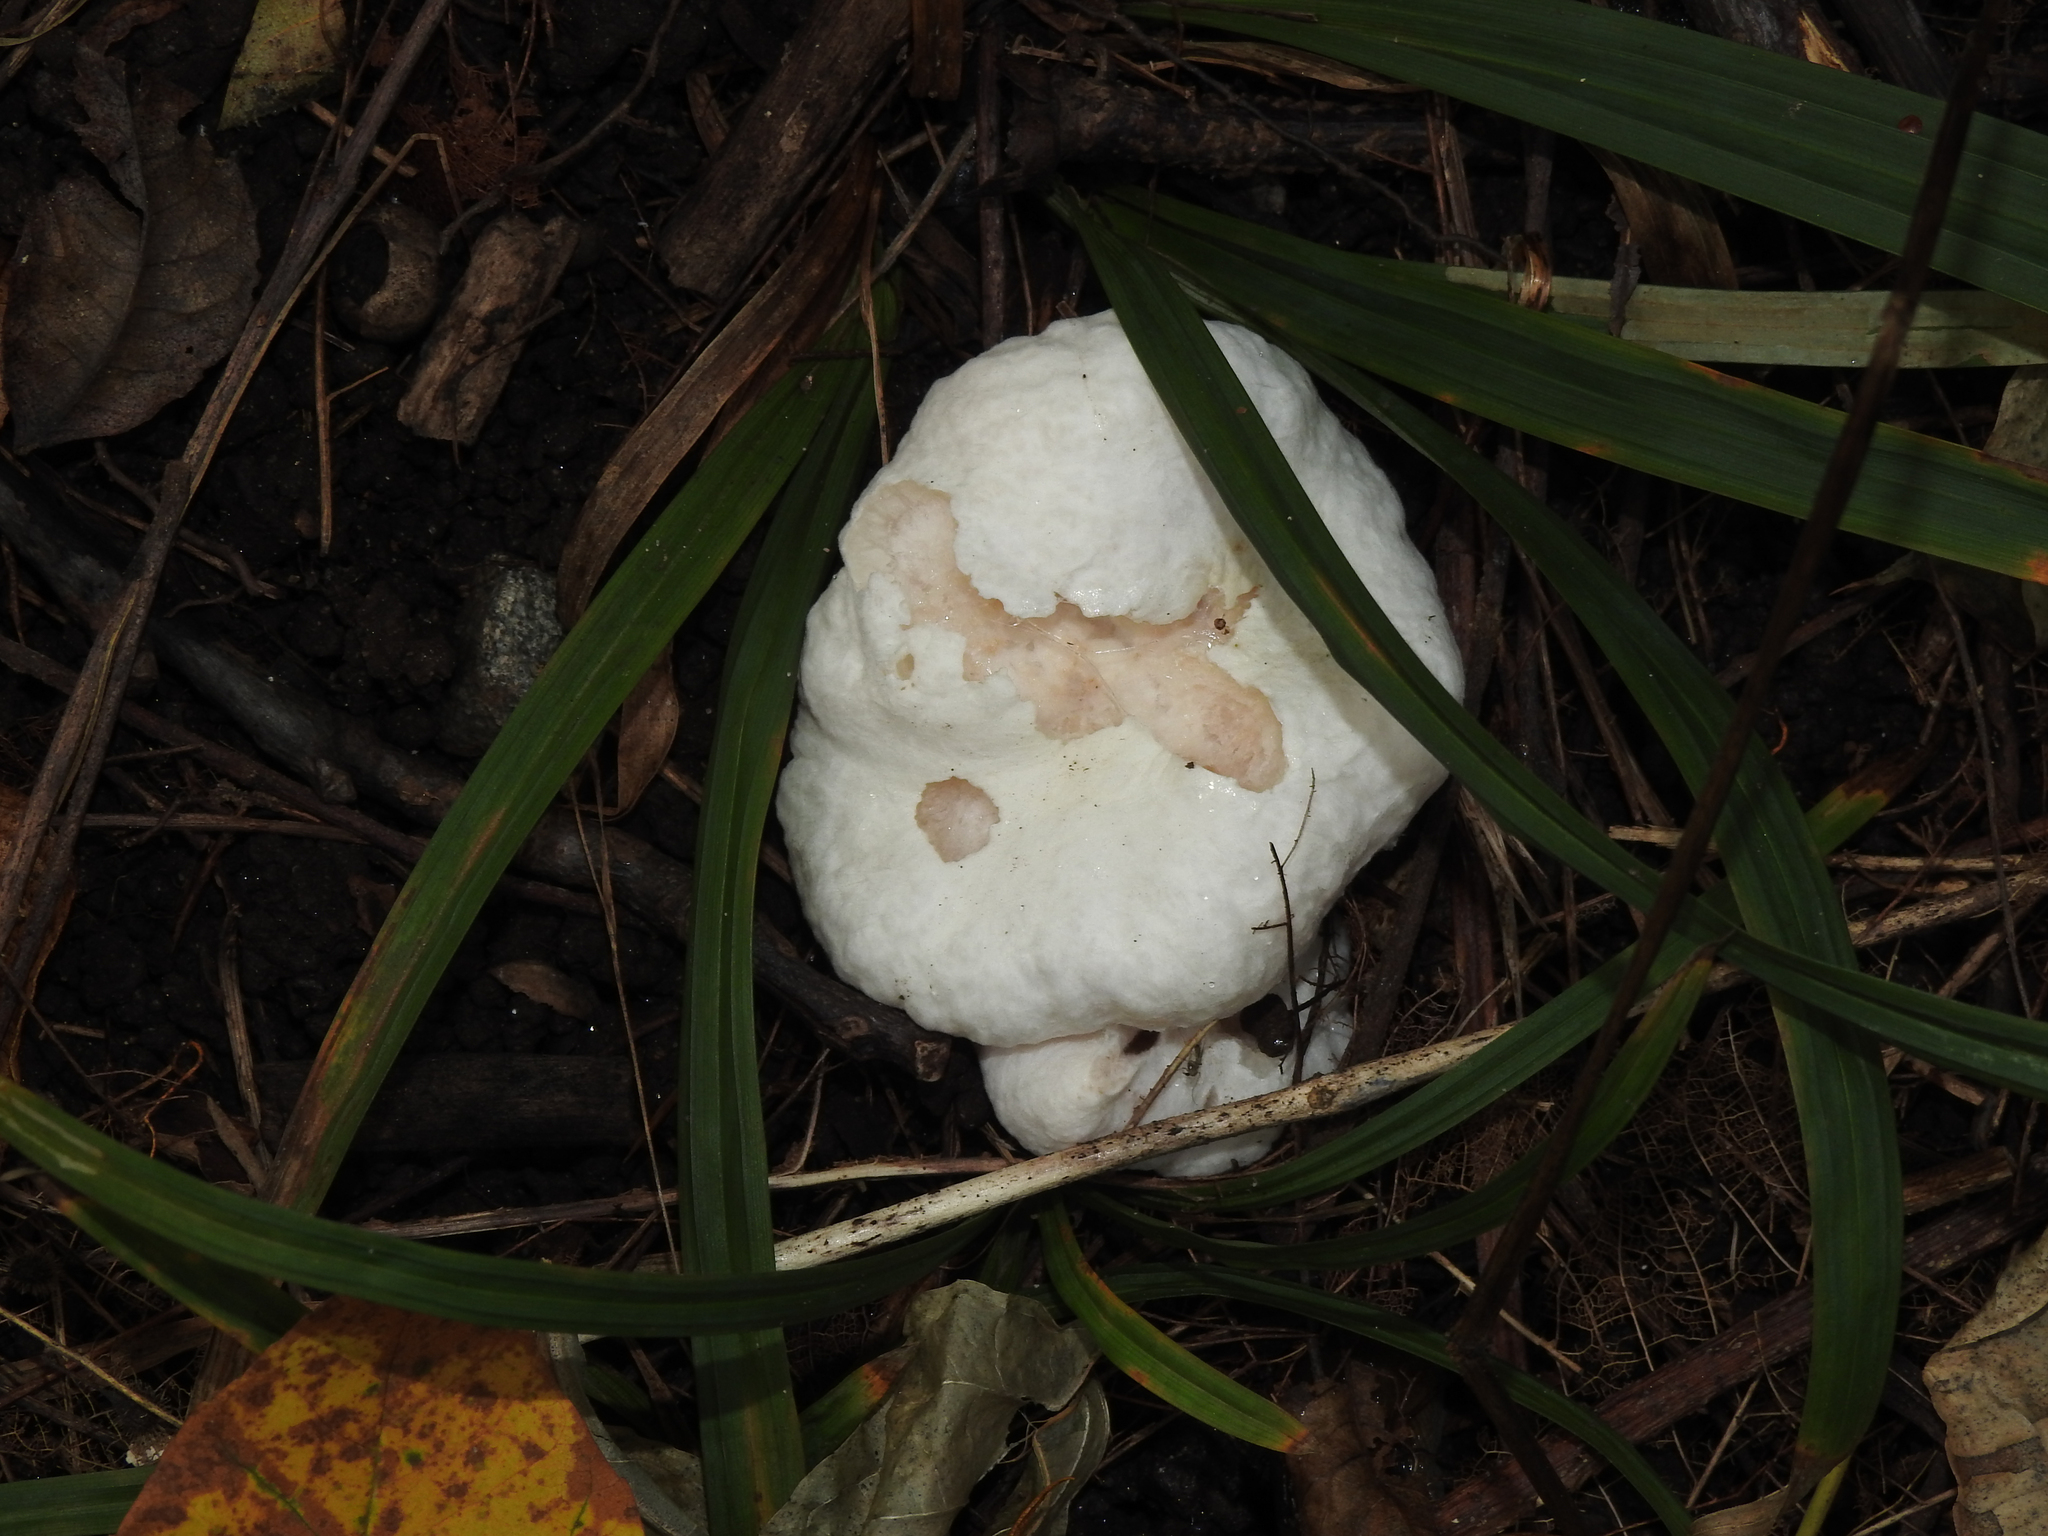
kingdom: Fungi
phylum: Basidiomycota
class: Agaricomycetes
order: Agaricales
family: Entolomataceae
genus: Entoloma
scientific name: Entoloma abortivum
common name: Aborted entoloma
